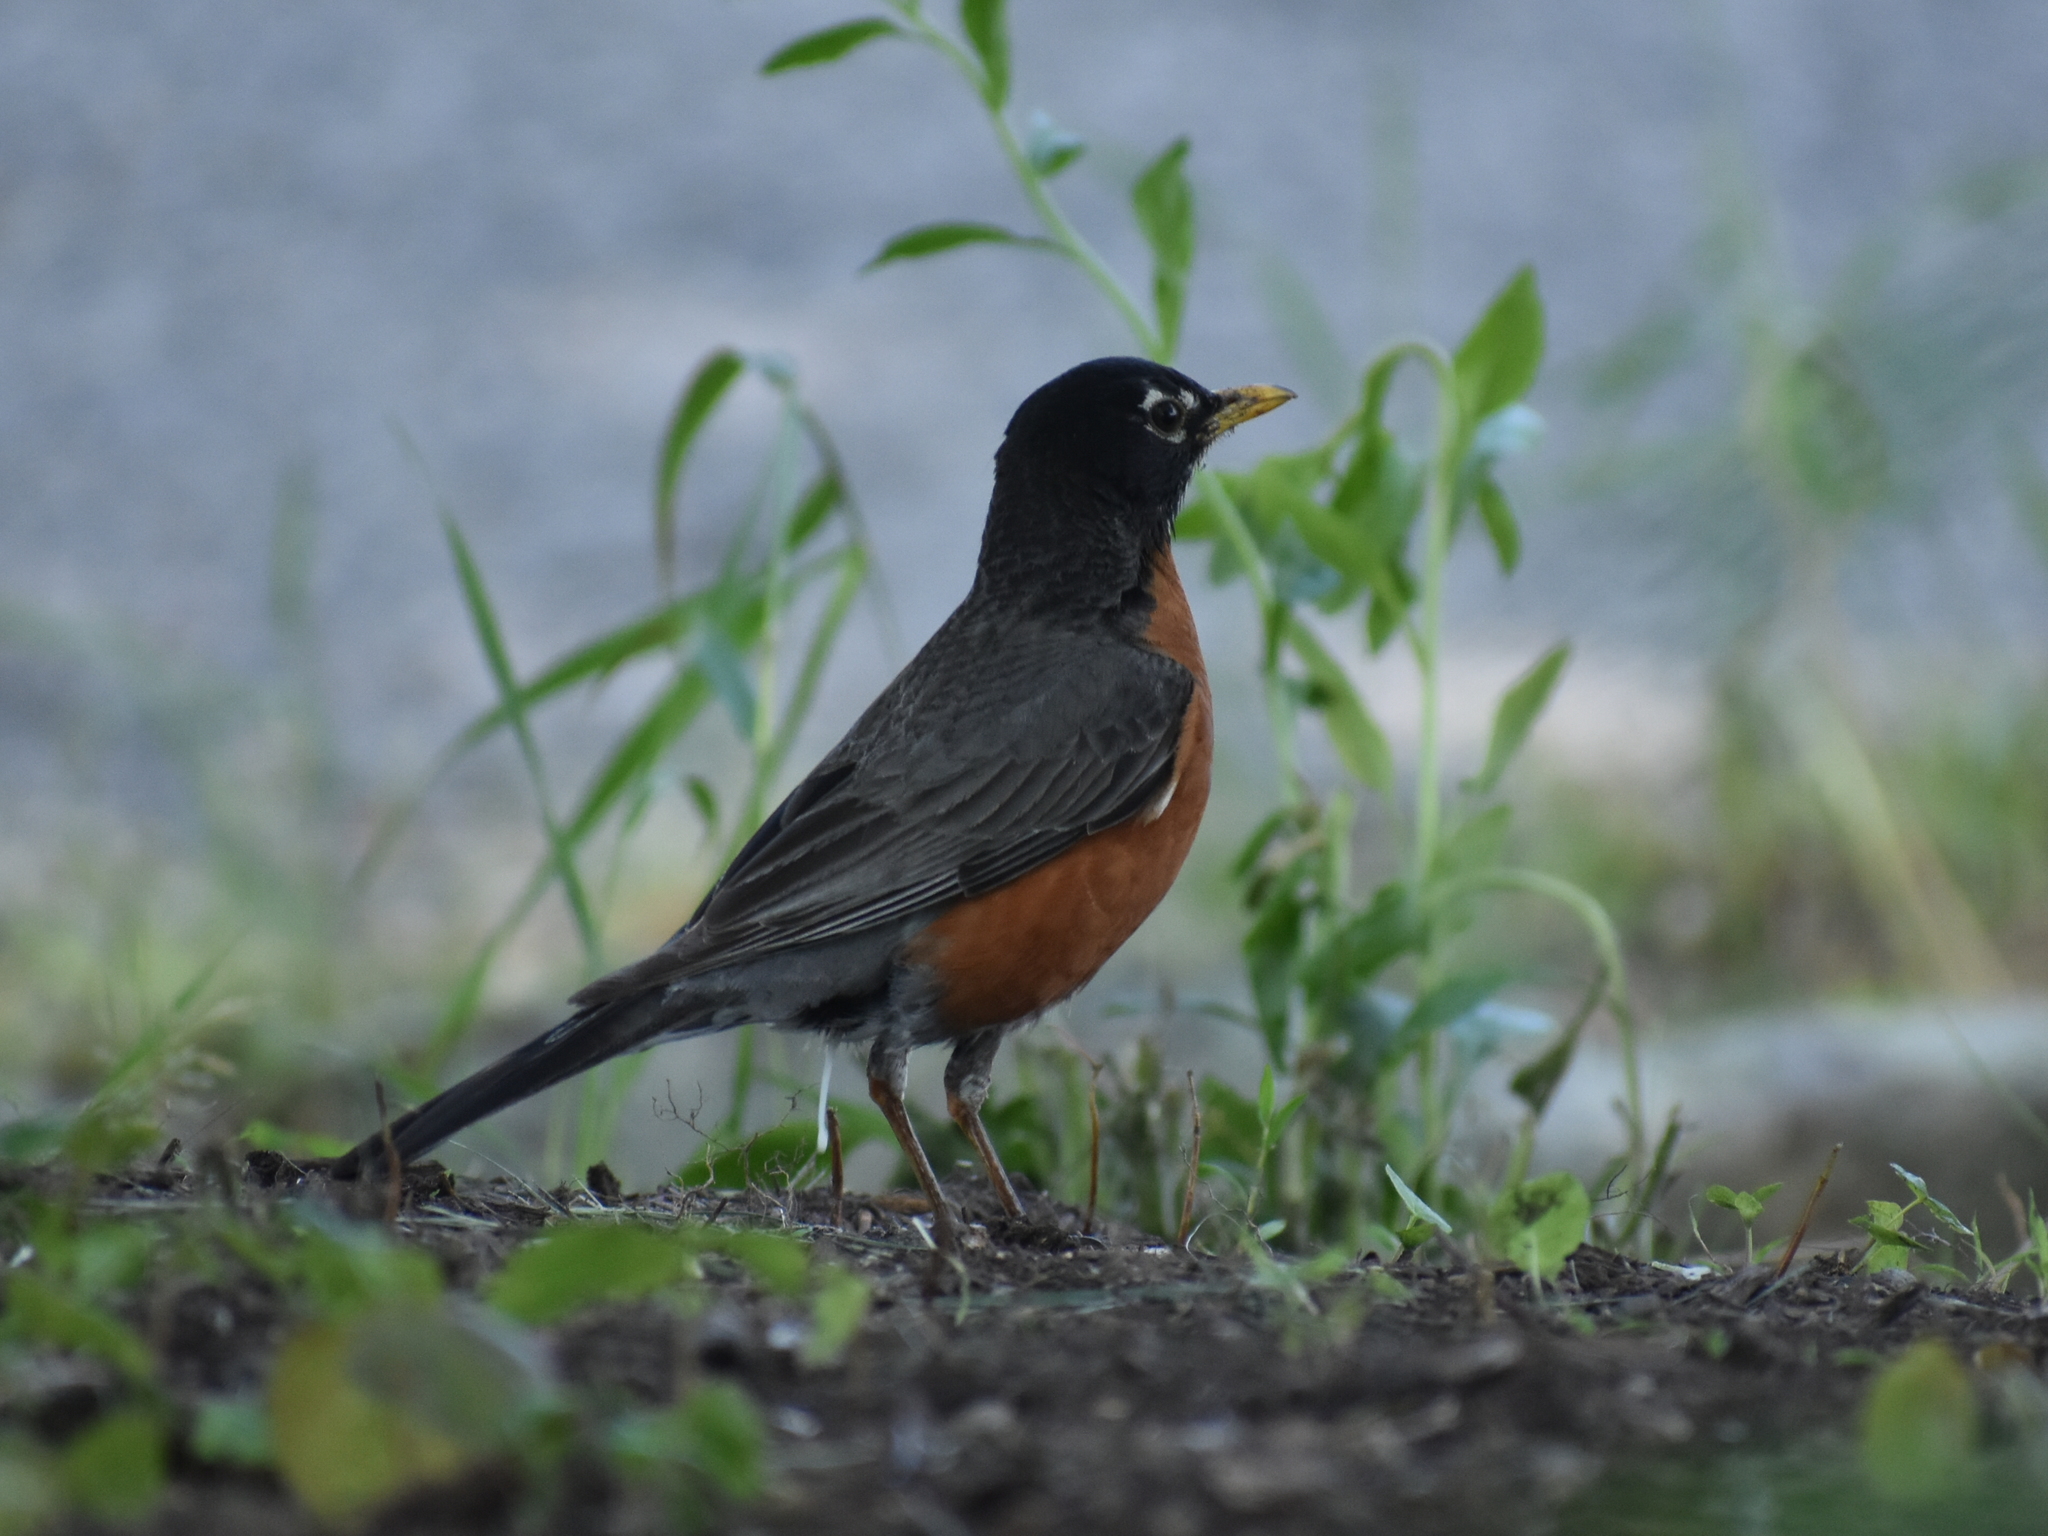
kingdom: Animalia
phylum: Chordata
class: Aves
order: Passeriformes
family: Turdidae
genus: Turdus
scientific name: Turdus migratorius
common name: American robin
